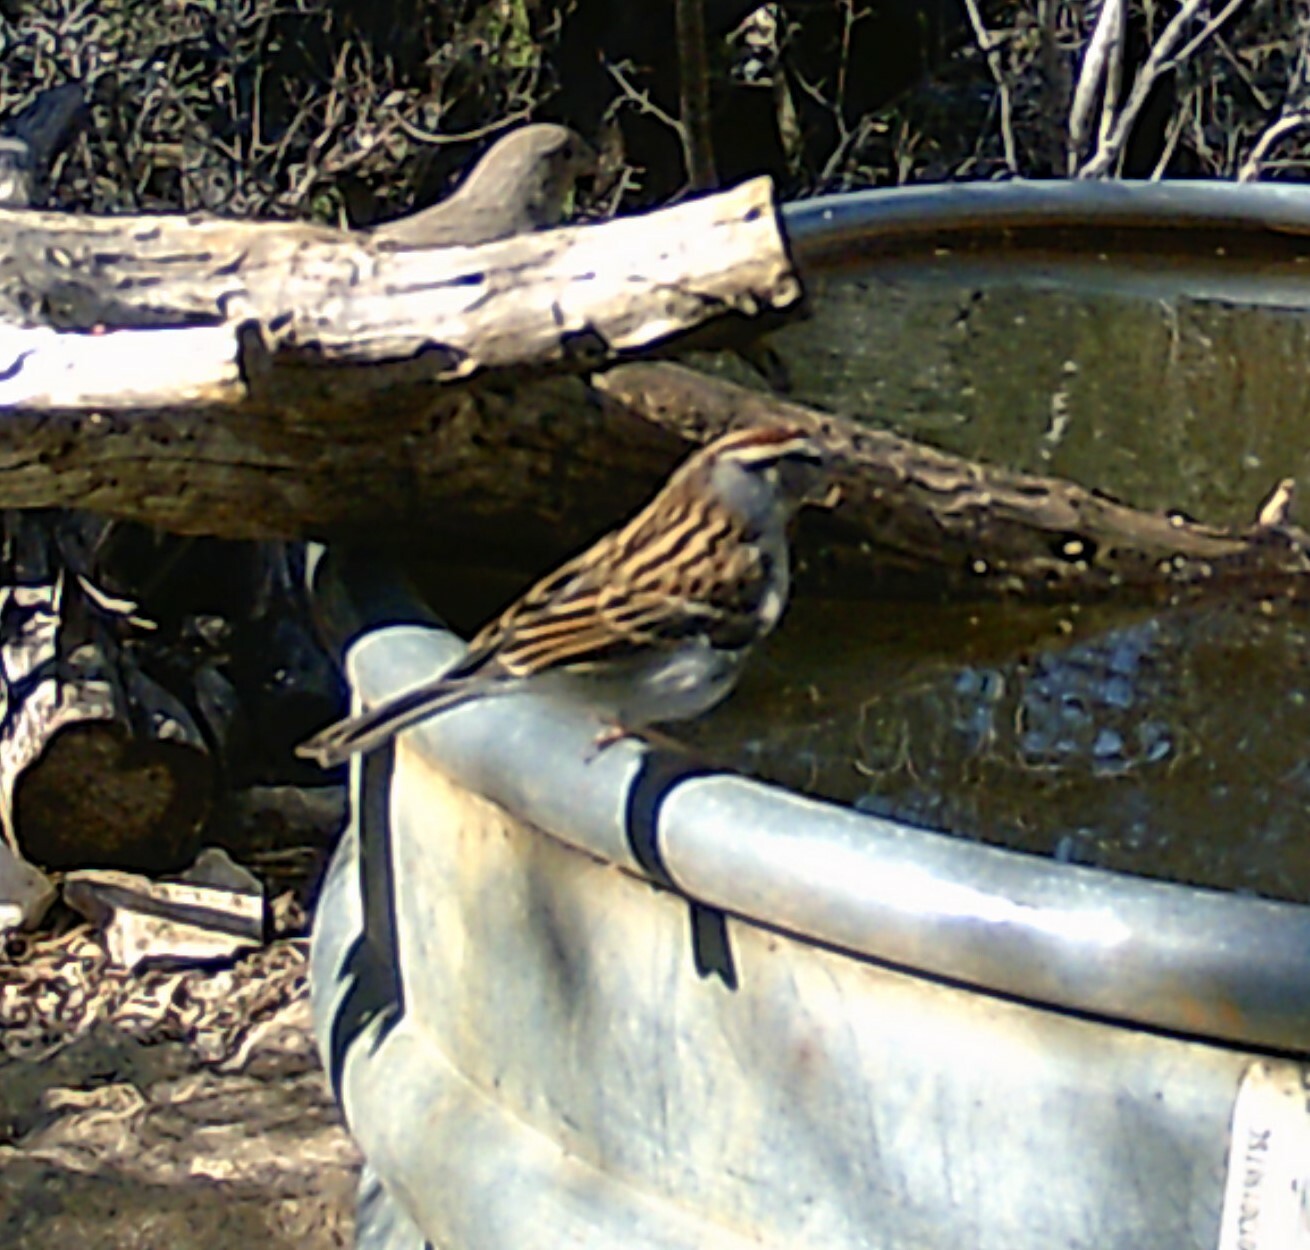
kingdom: Animalia
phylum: Chordata
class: Aves
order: Passeriformes
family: Passerellidae
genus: Spizella
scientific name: Spizella passerina
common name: Chipping sparrow
